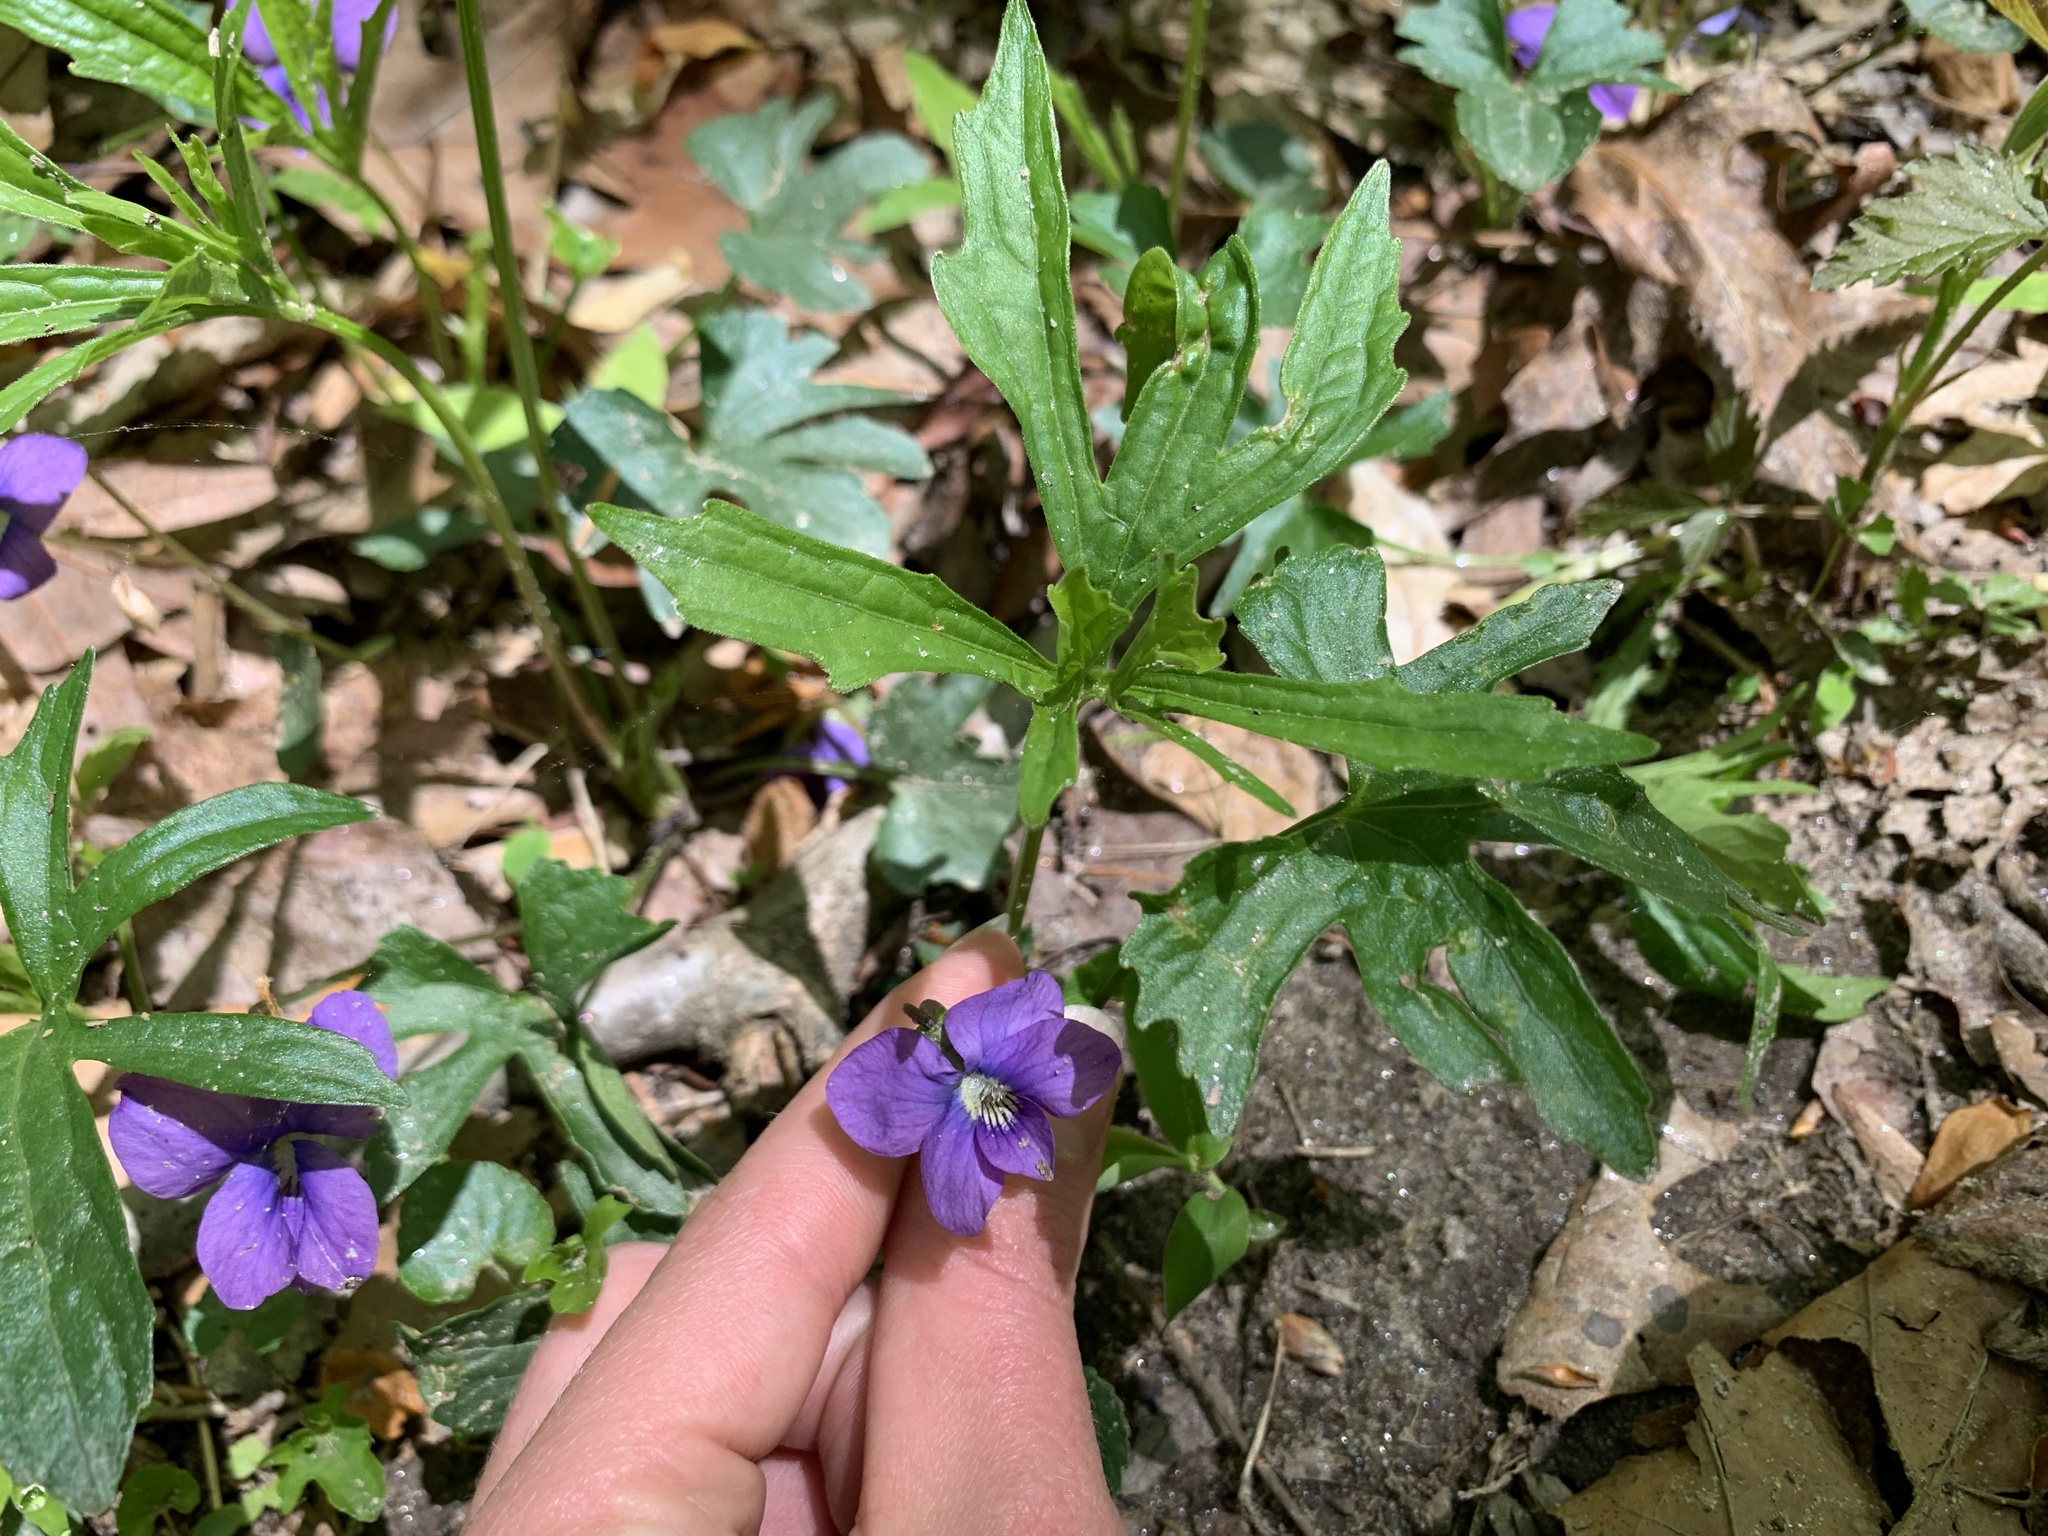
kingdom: Plantae
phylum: Tracheophyta
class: Magnoliopsida
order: Malpighiales
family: Violaceae
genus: Viola
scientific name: Viola palmata
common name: Early blue violet
